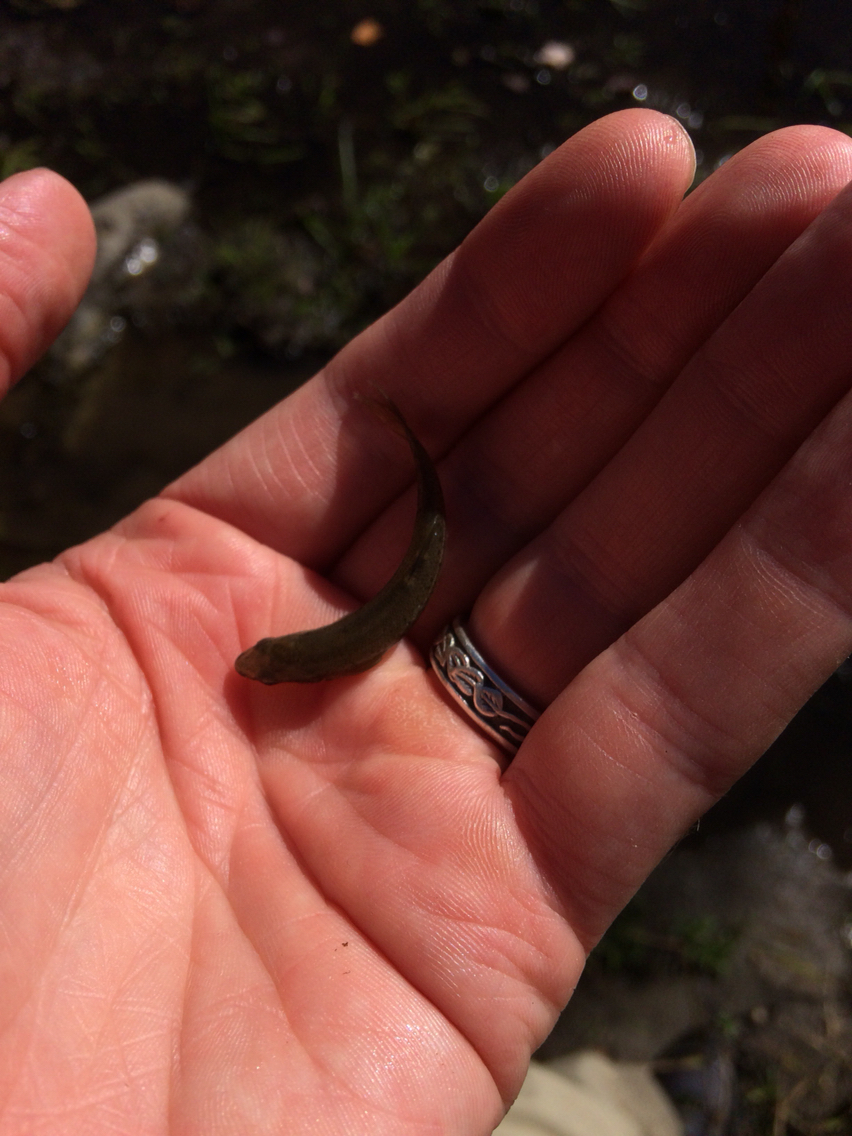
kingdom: Animalia
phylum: Chordata
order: Cypriniformes
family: Cyprinidae
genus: Rhinichthys
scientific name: Rhinichthys atratulus
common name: Eastern blacknose dace
